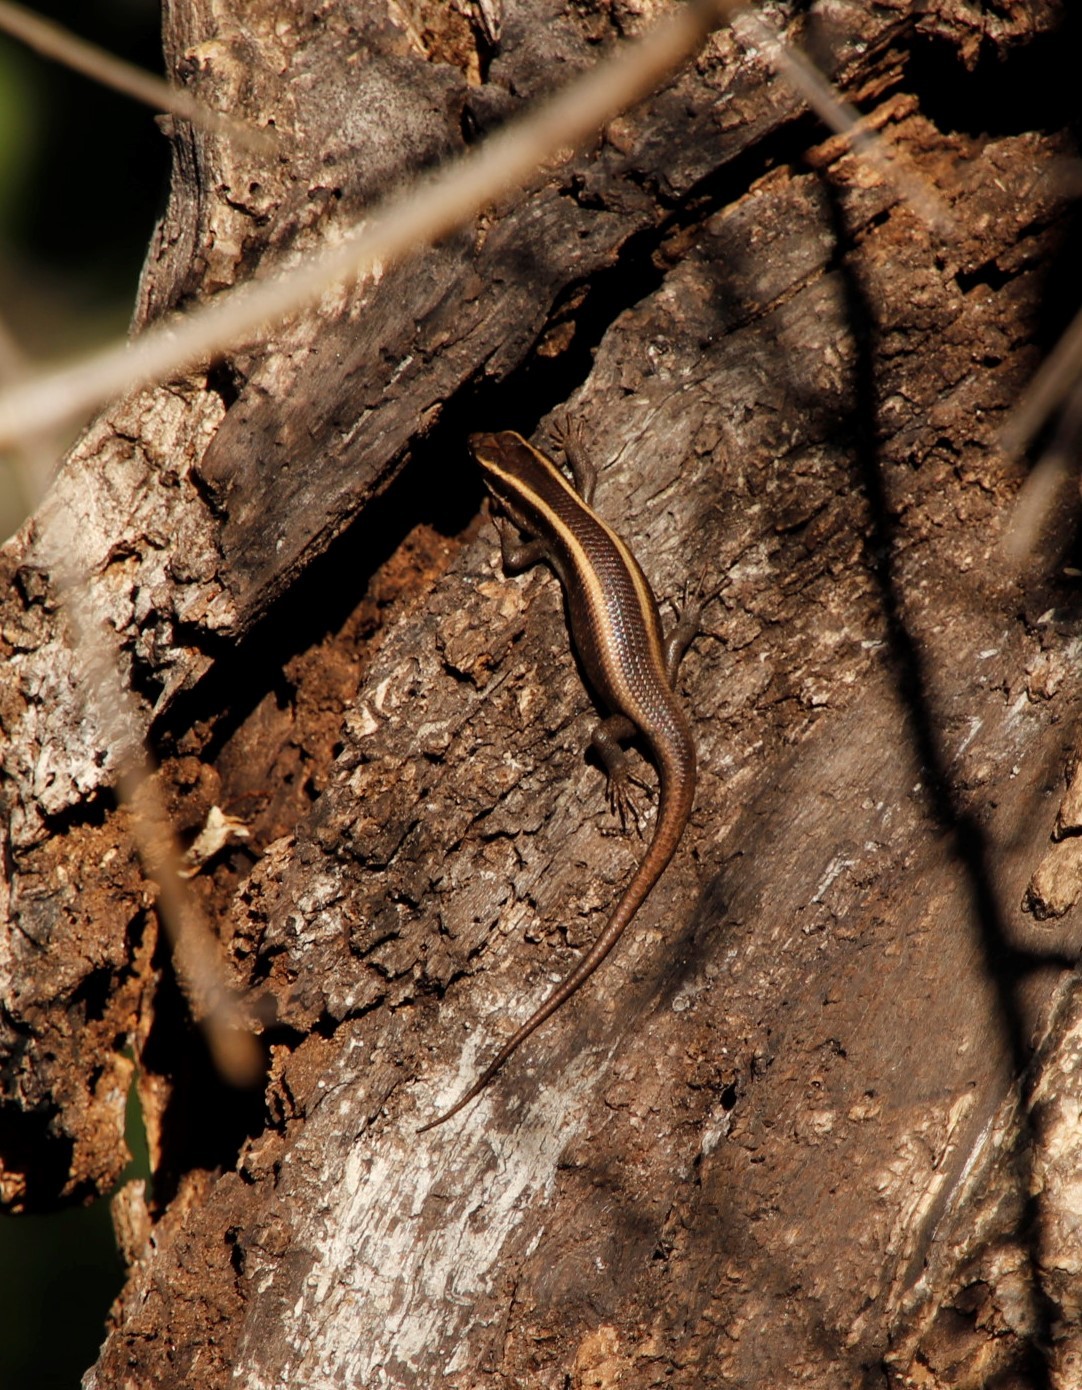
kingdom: Animalia
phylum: Chordata
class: Squamata
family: Scincidae
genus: Trachylepis
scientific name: Trachylepis striata
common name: African striped mabuya
